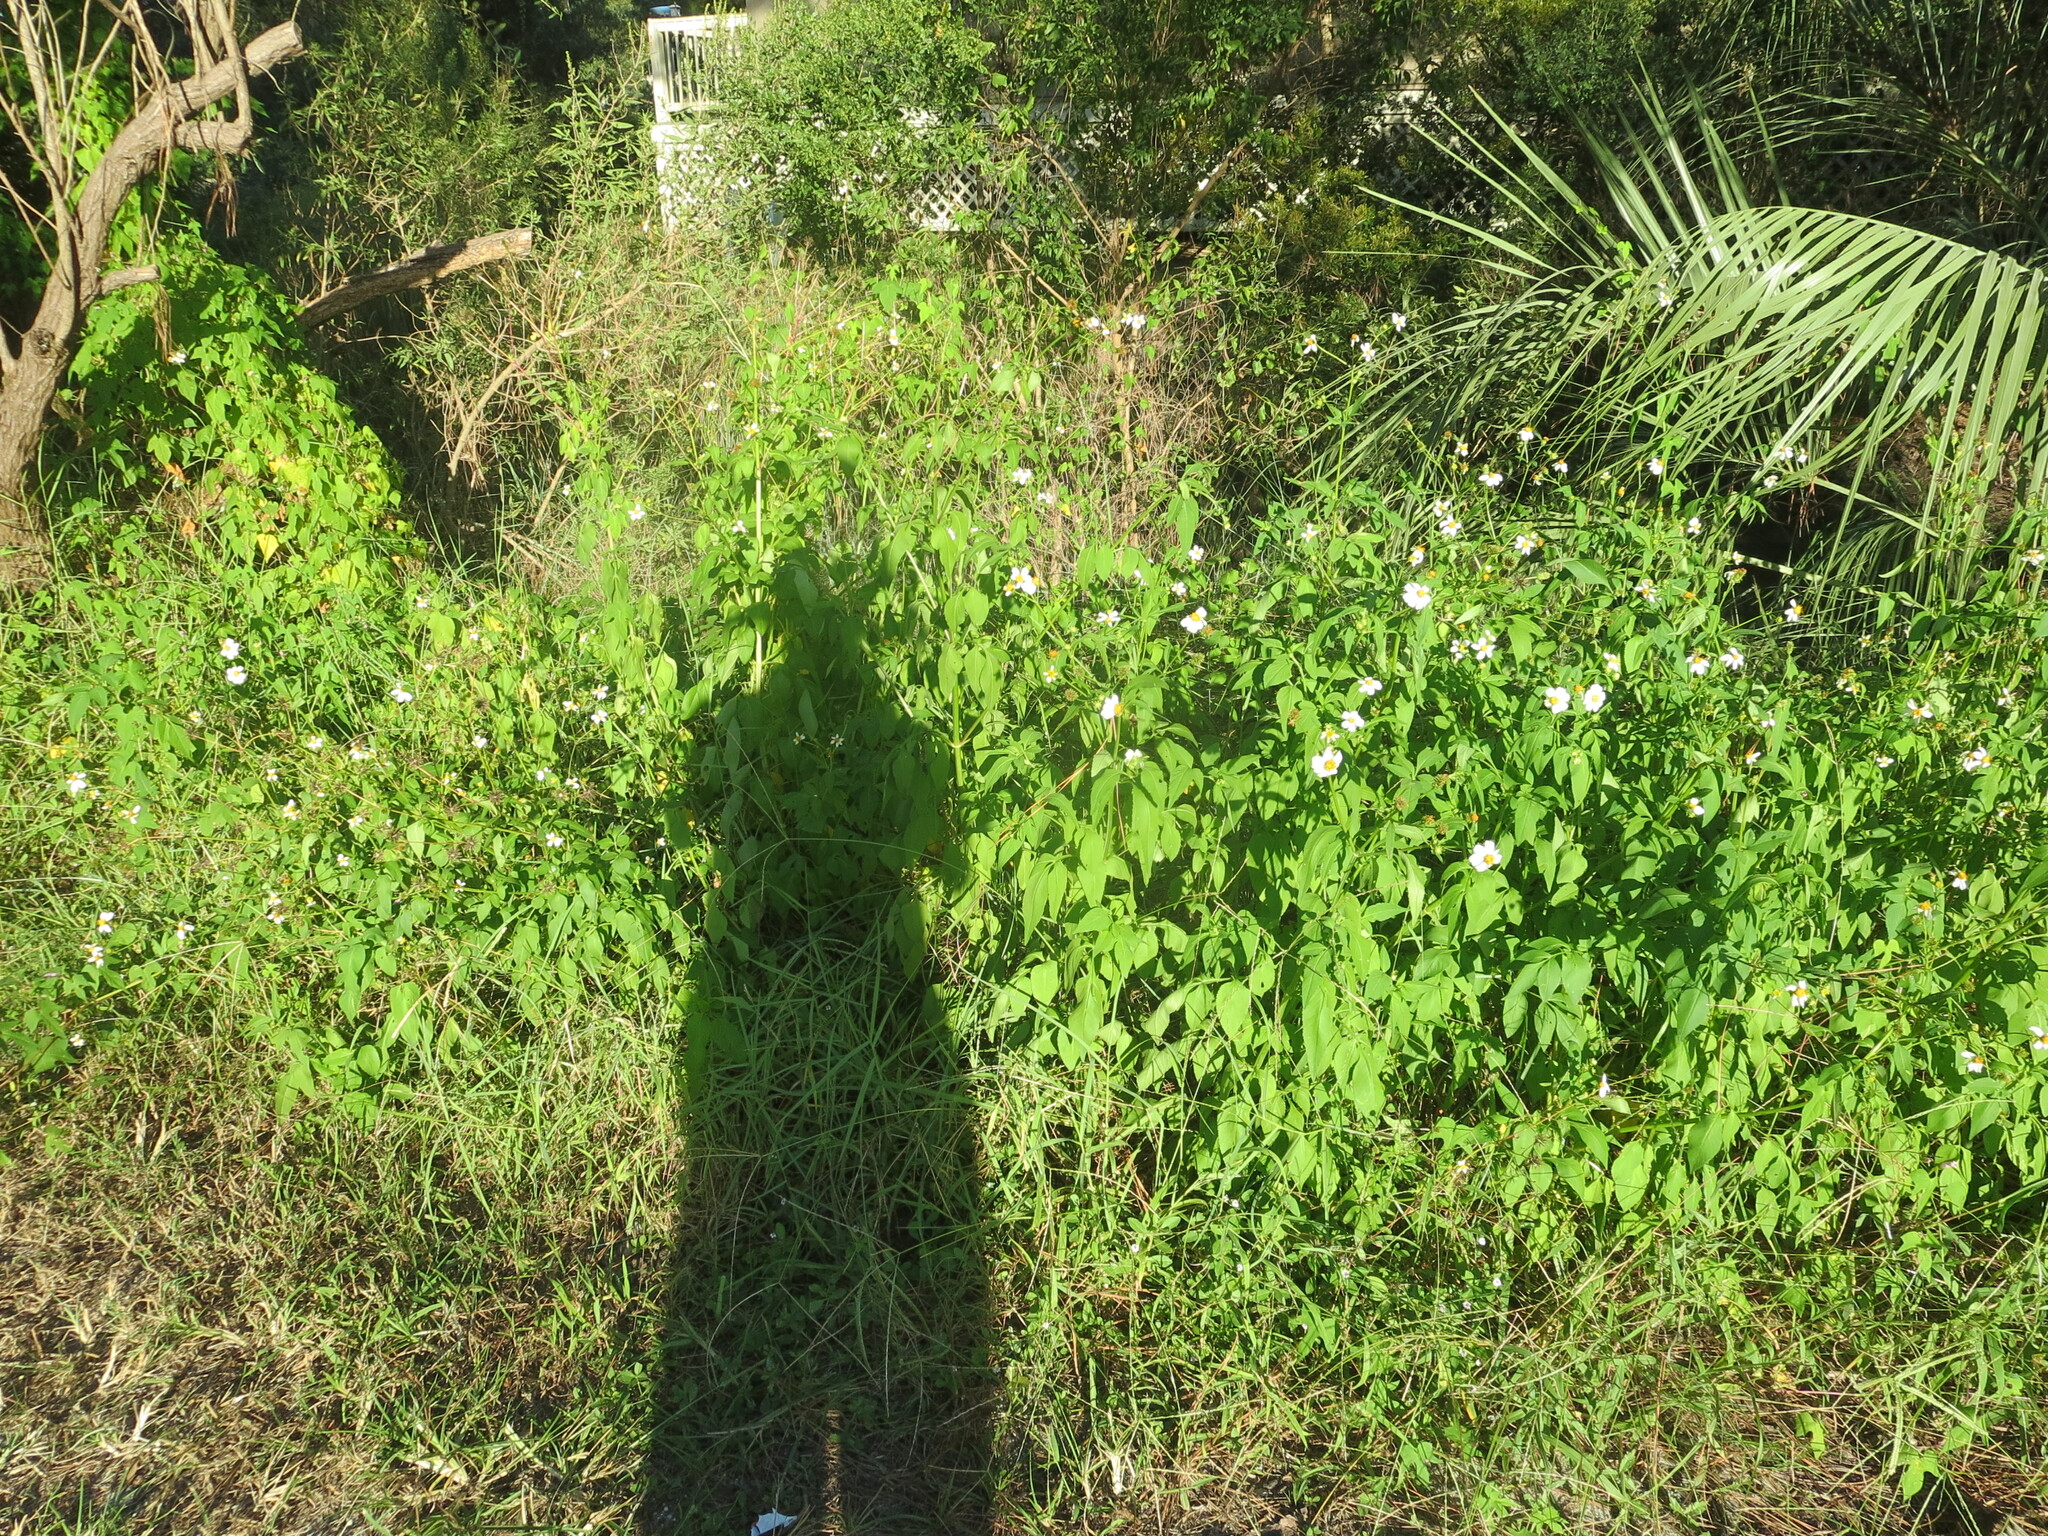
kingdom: Plantae
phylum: Tracheophyta
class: Magnoliopsida
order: Asterales
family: Asteraceae
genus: Bidens
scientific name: Bidens alba
